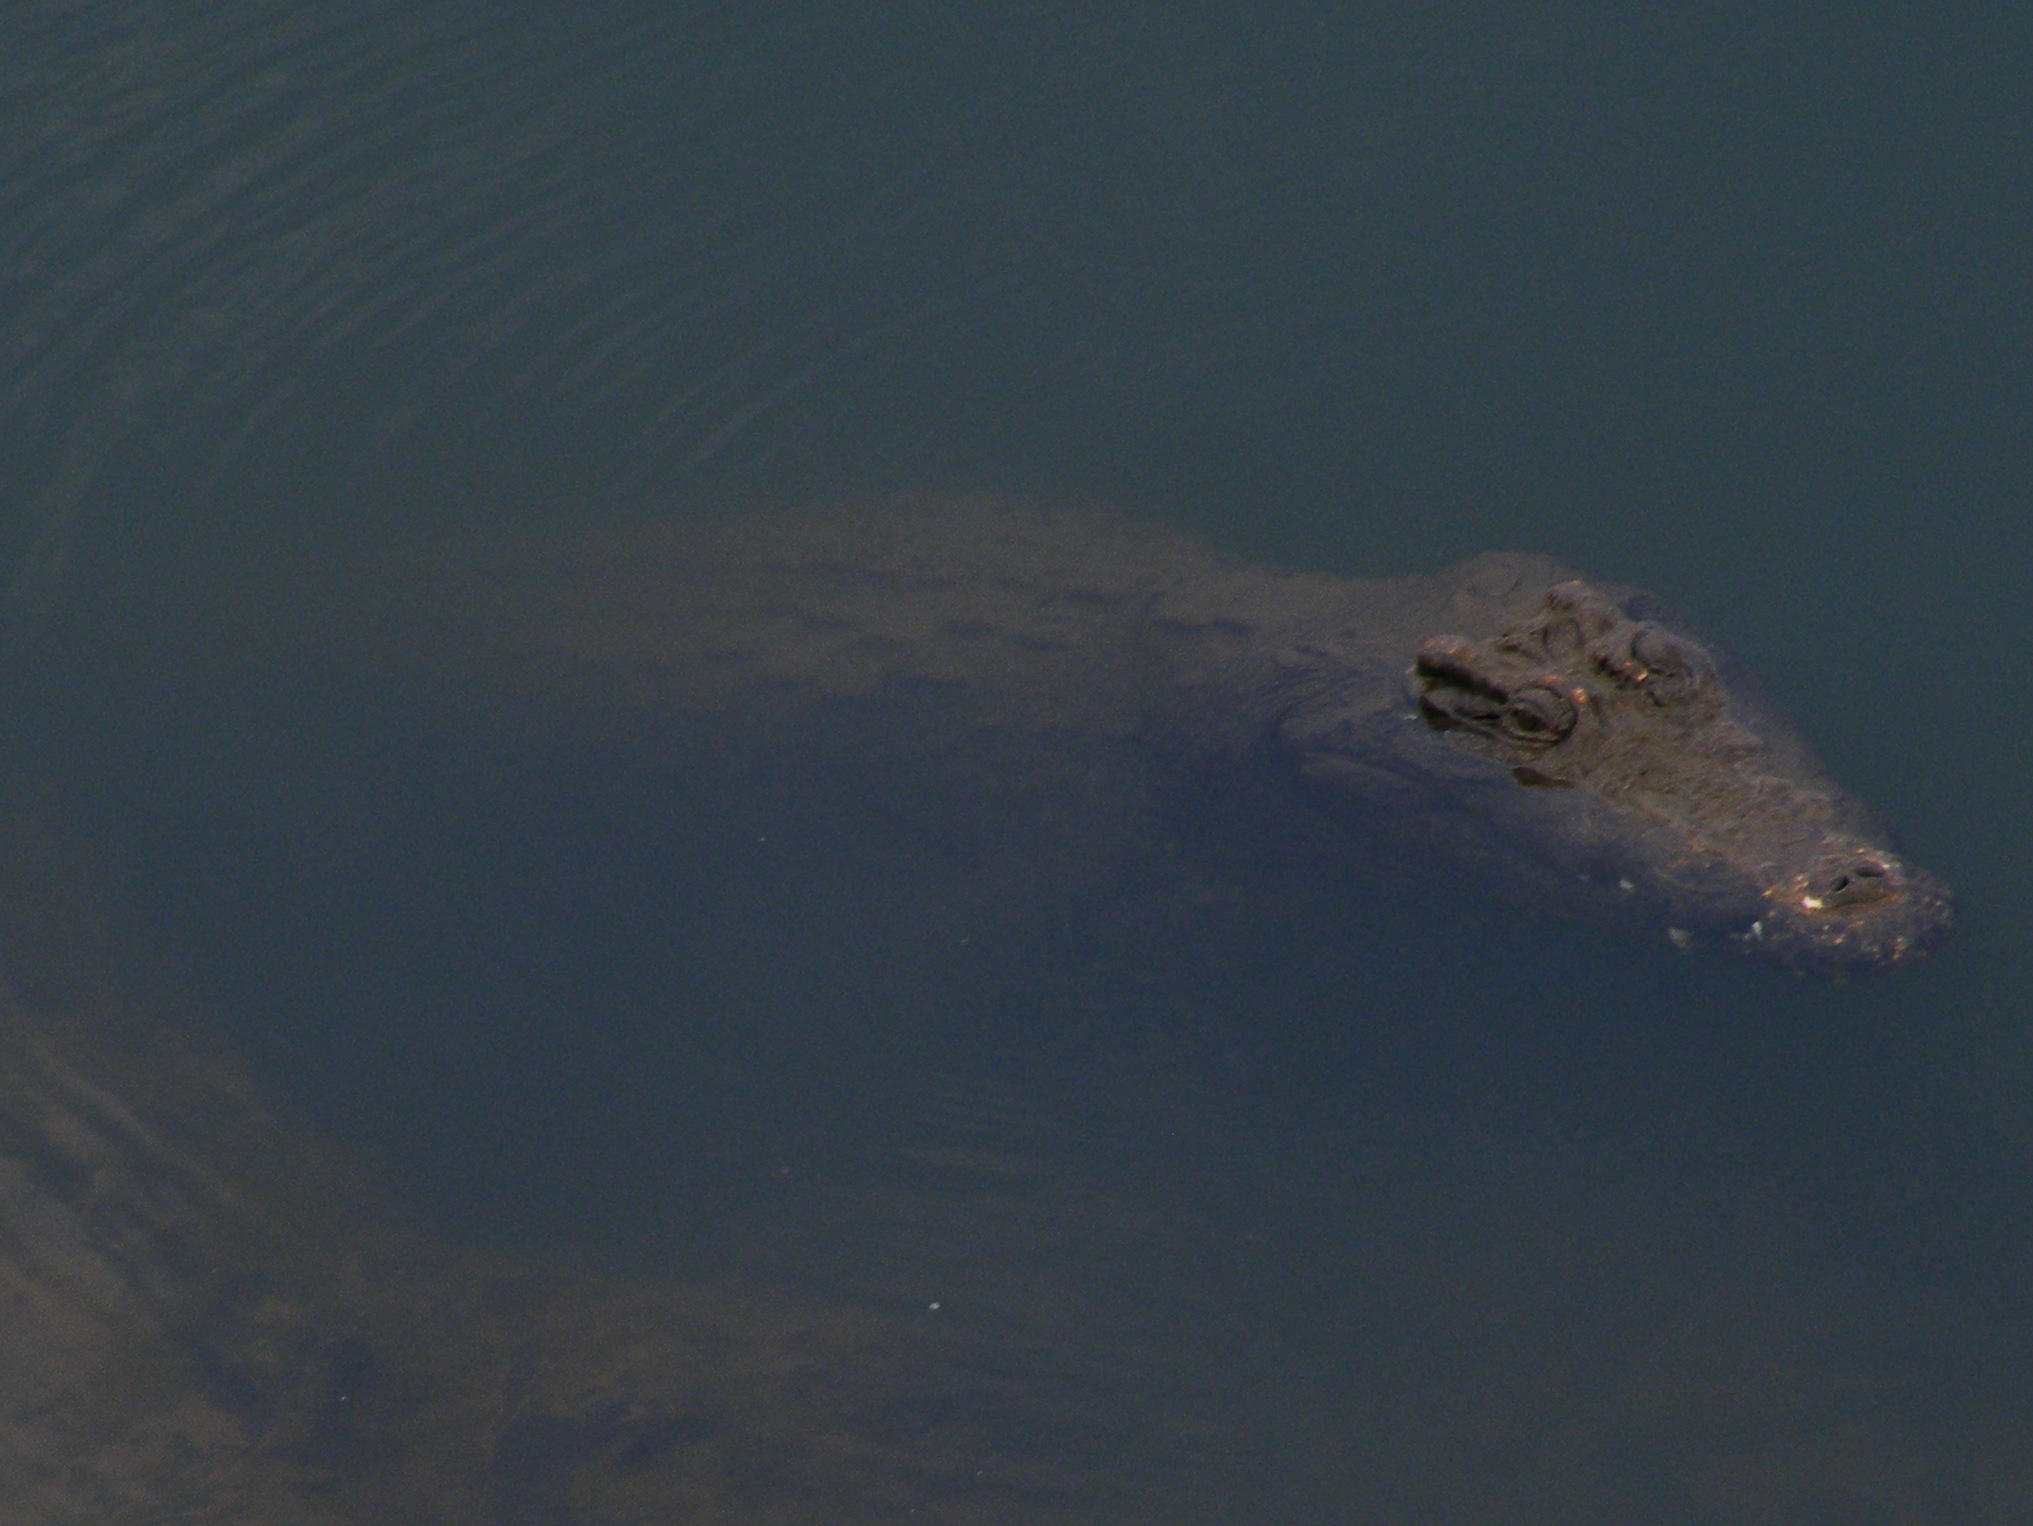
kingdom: Animalia
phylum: Chordata
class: Crocodylia
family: Crocodylidae
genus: Crocodylus
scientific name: Crocodylus niloticus
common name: Nile crocodile
